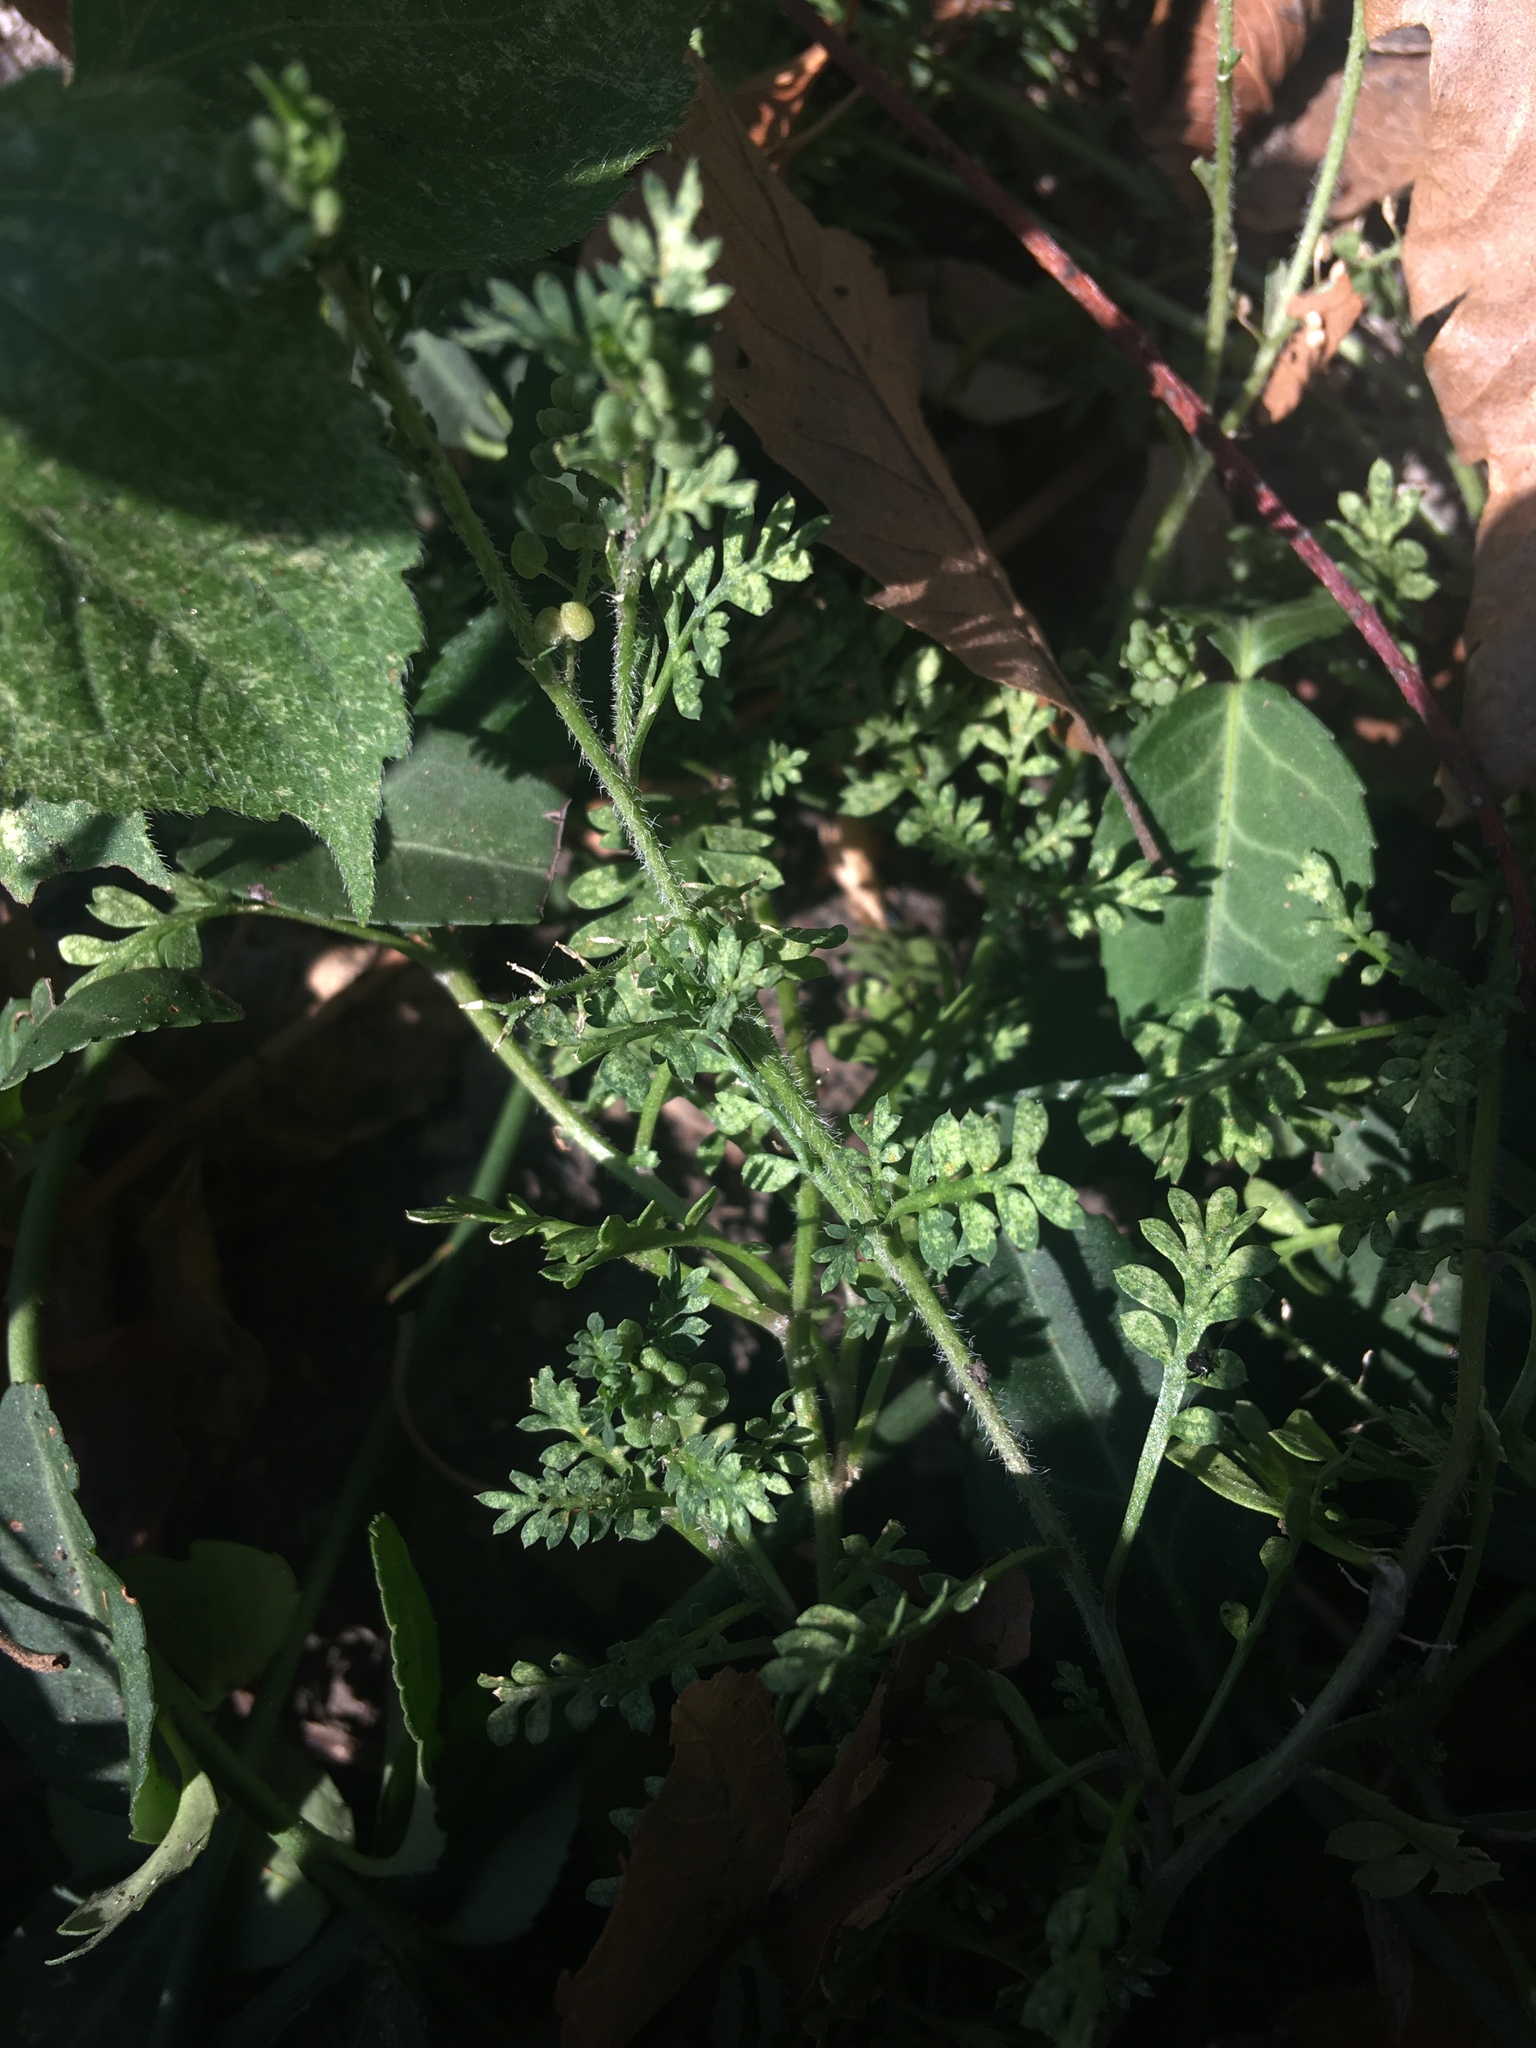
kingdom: Plantae
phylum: Tracheophyta
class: Magnoliopsida
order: Brassicales
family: Brassicaceae
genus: Lepidium
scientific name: Lepidium didymum
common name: Lesser swinecress
